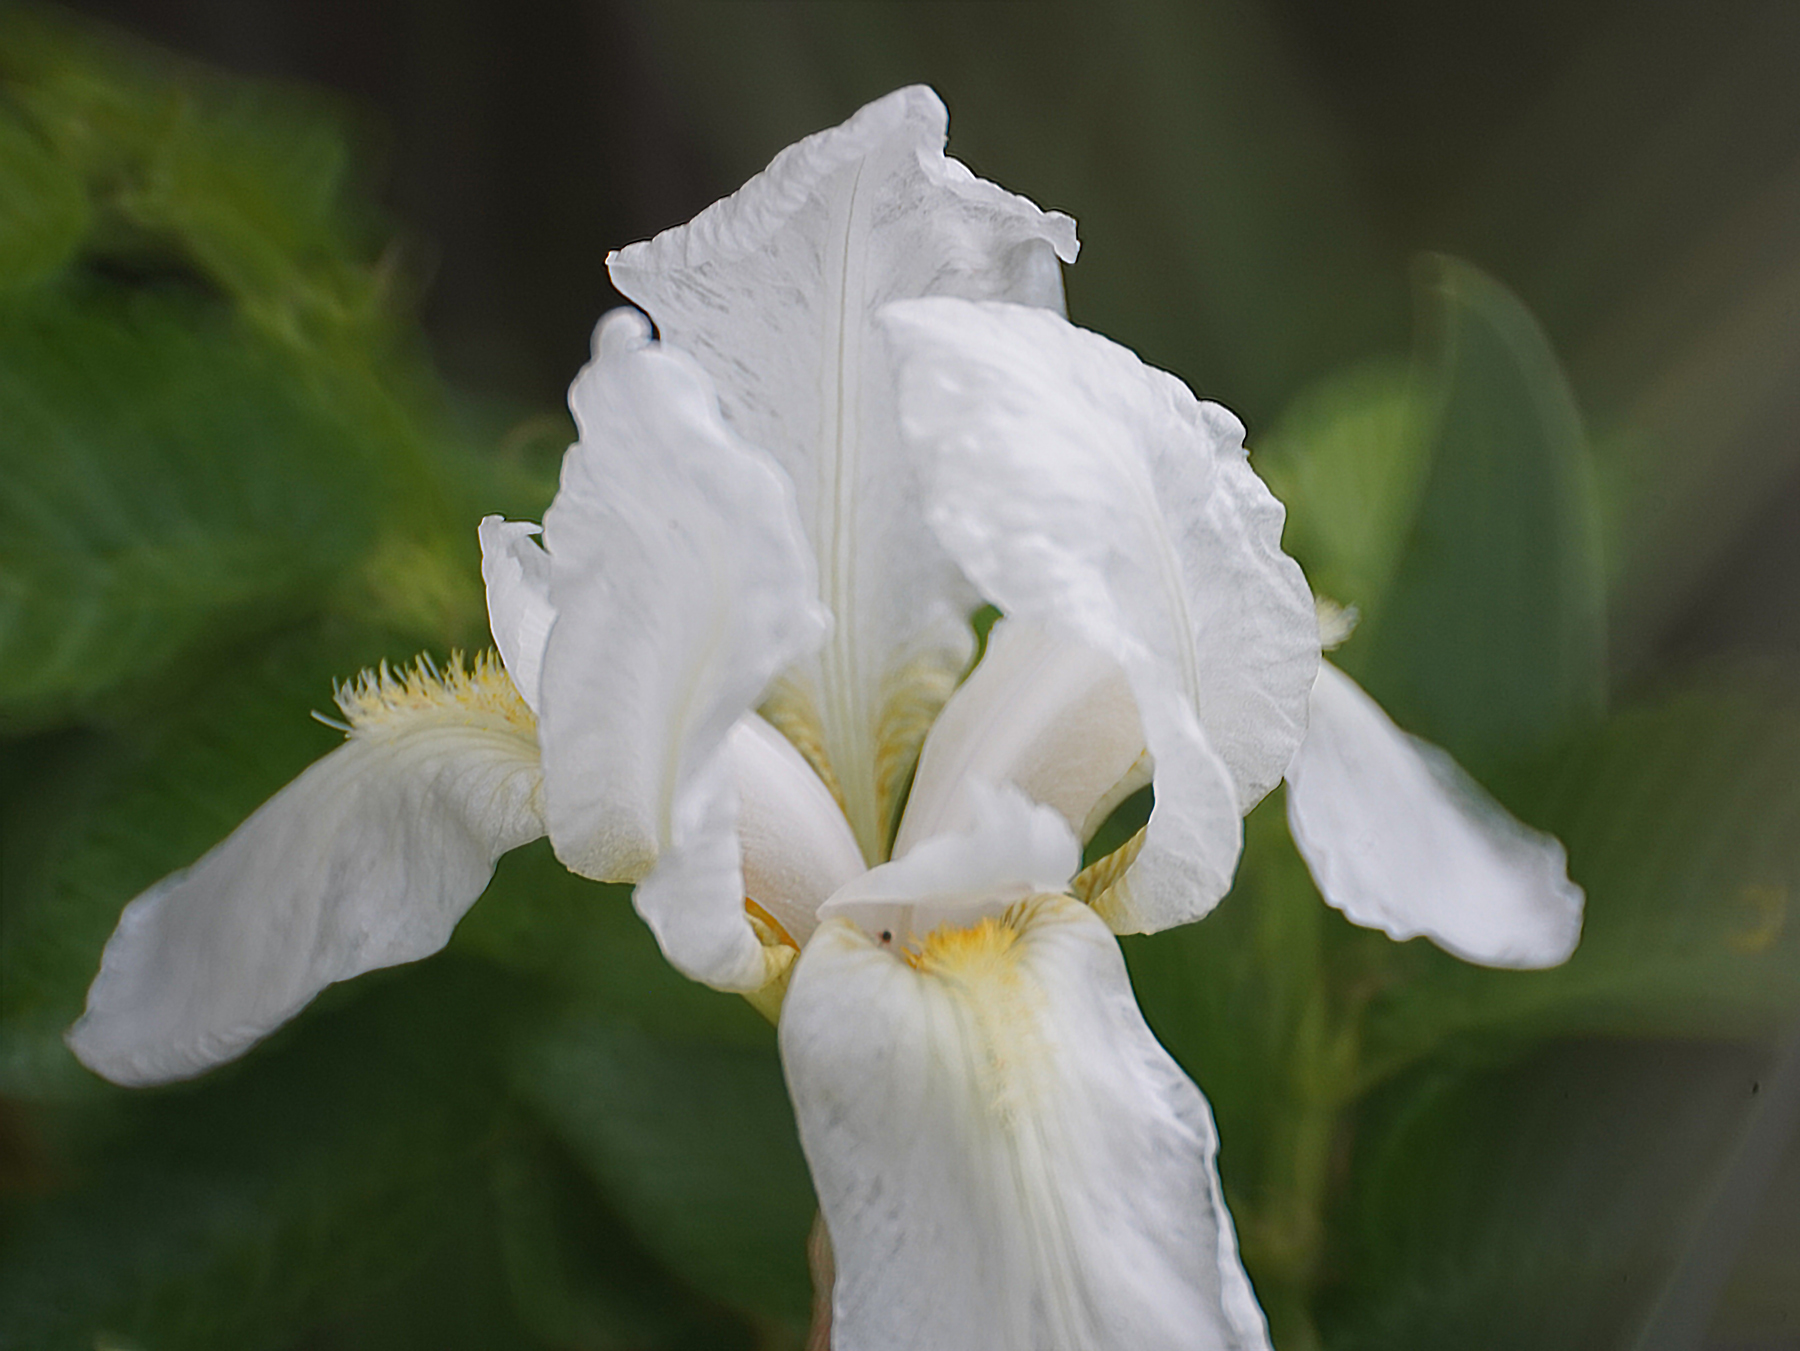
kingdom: Plantae
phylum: Tracheophyta
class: Liliopsida
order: Asparagales
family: Iridaceae
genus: Iris
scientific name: Iris florentina
